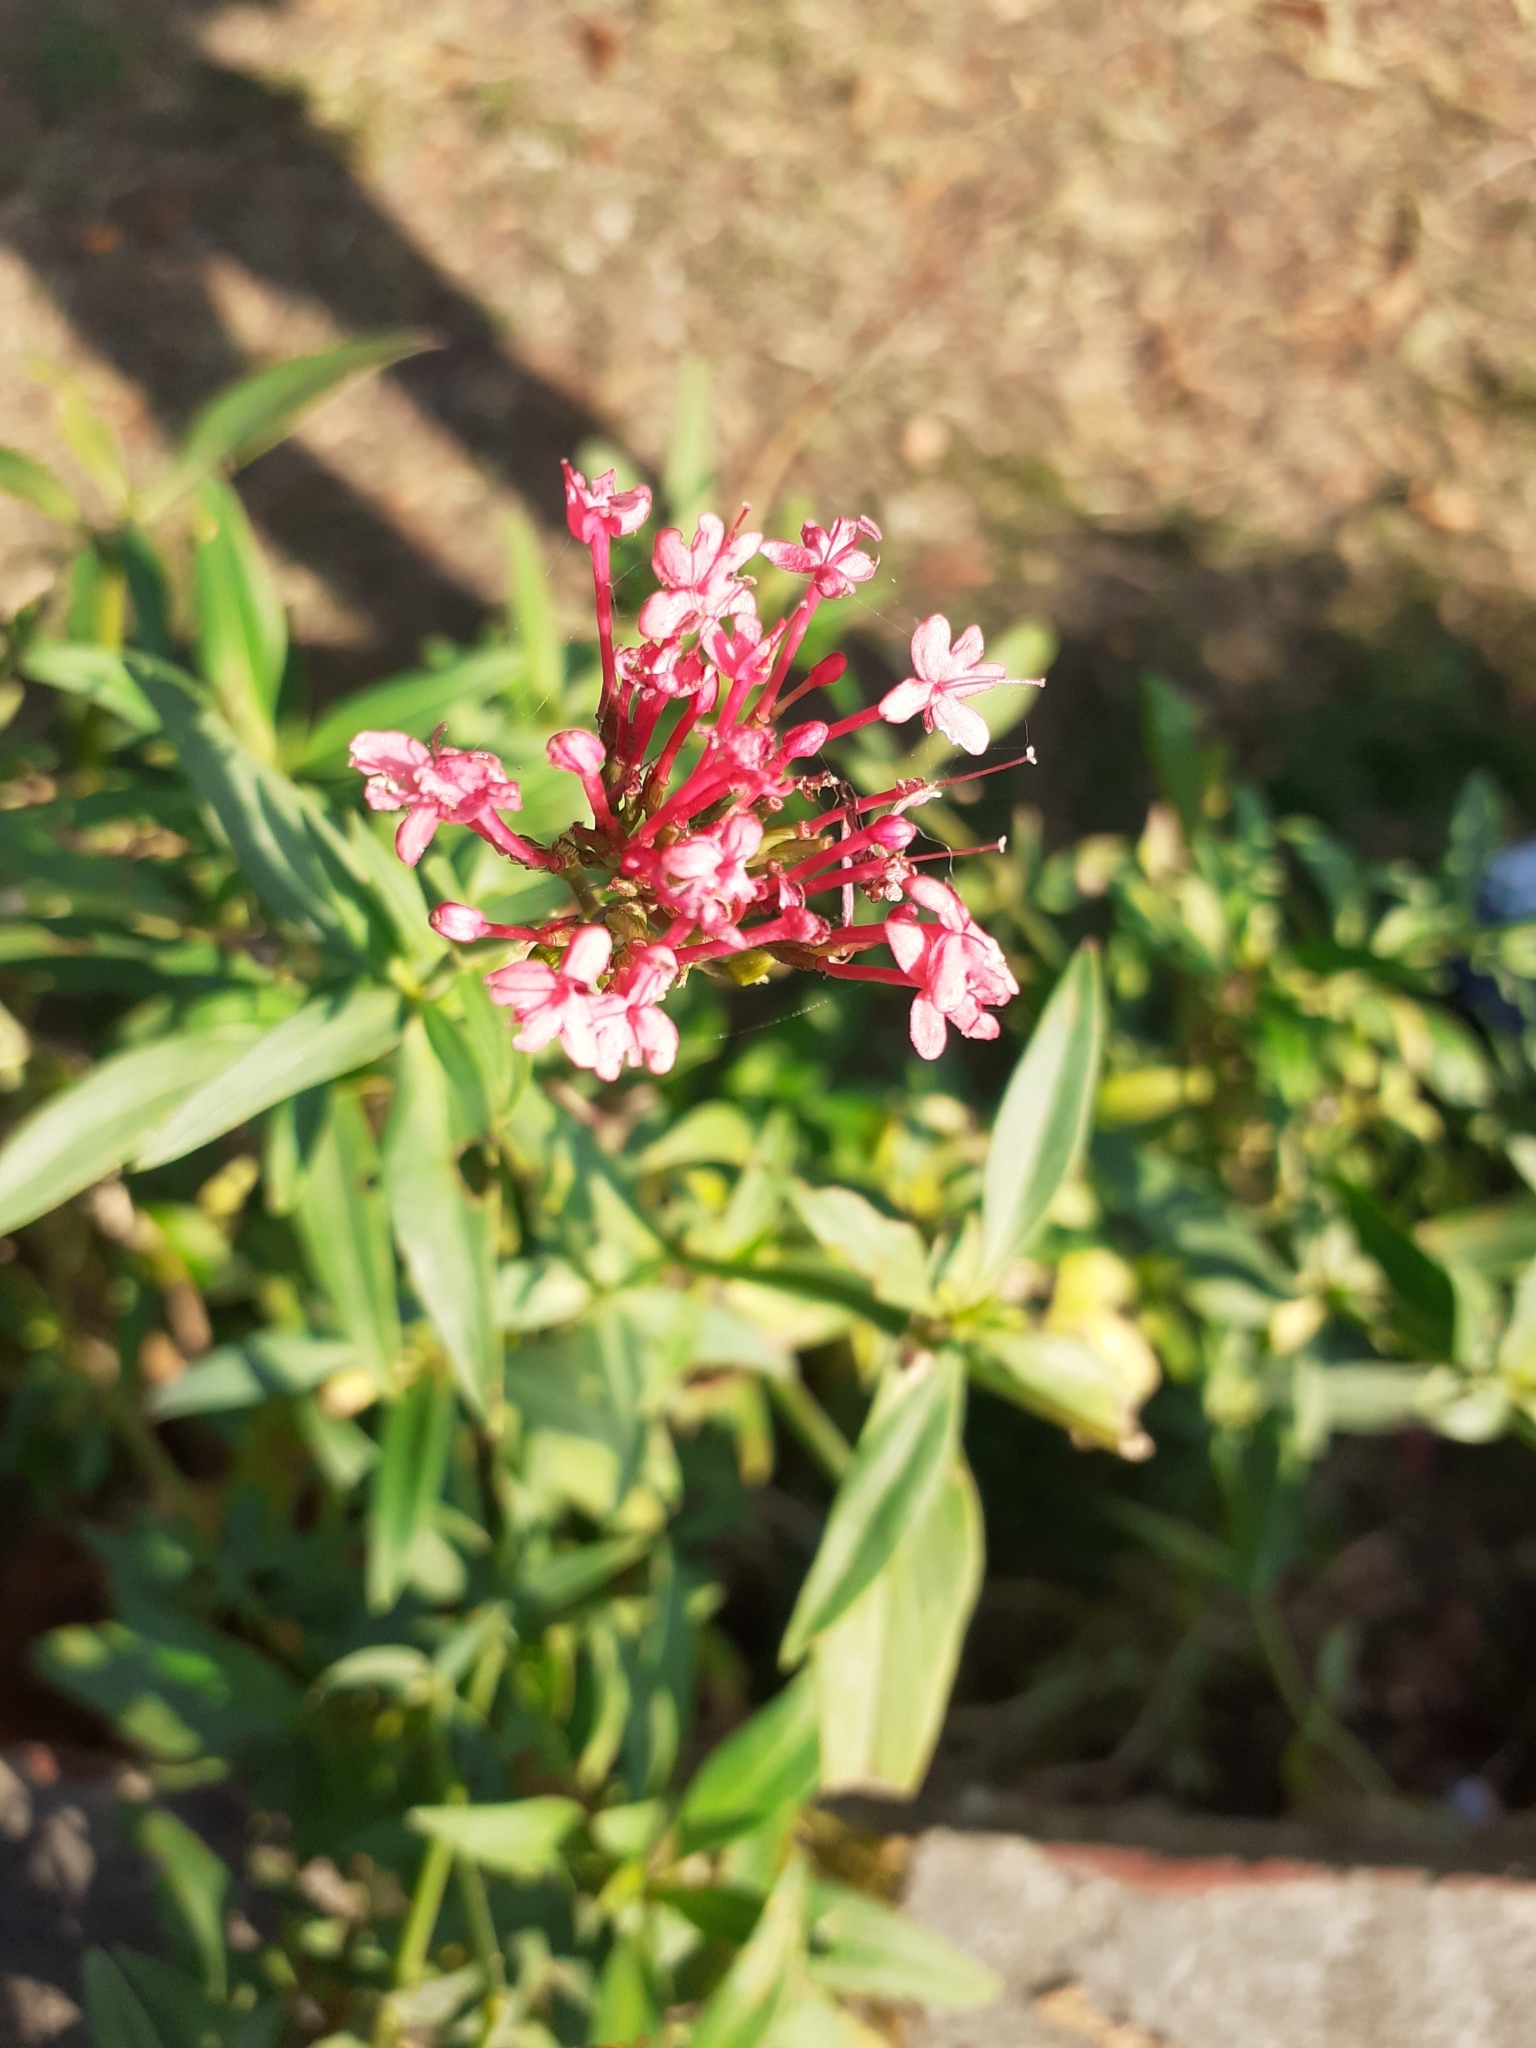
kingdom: Plantae
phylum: Tracheophyta
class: Magnoliopsida
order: Dipsacales
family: Caprifoliaceae
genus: Centranthus
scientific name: Centranthus ruber
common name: Red valerian
